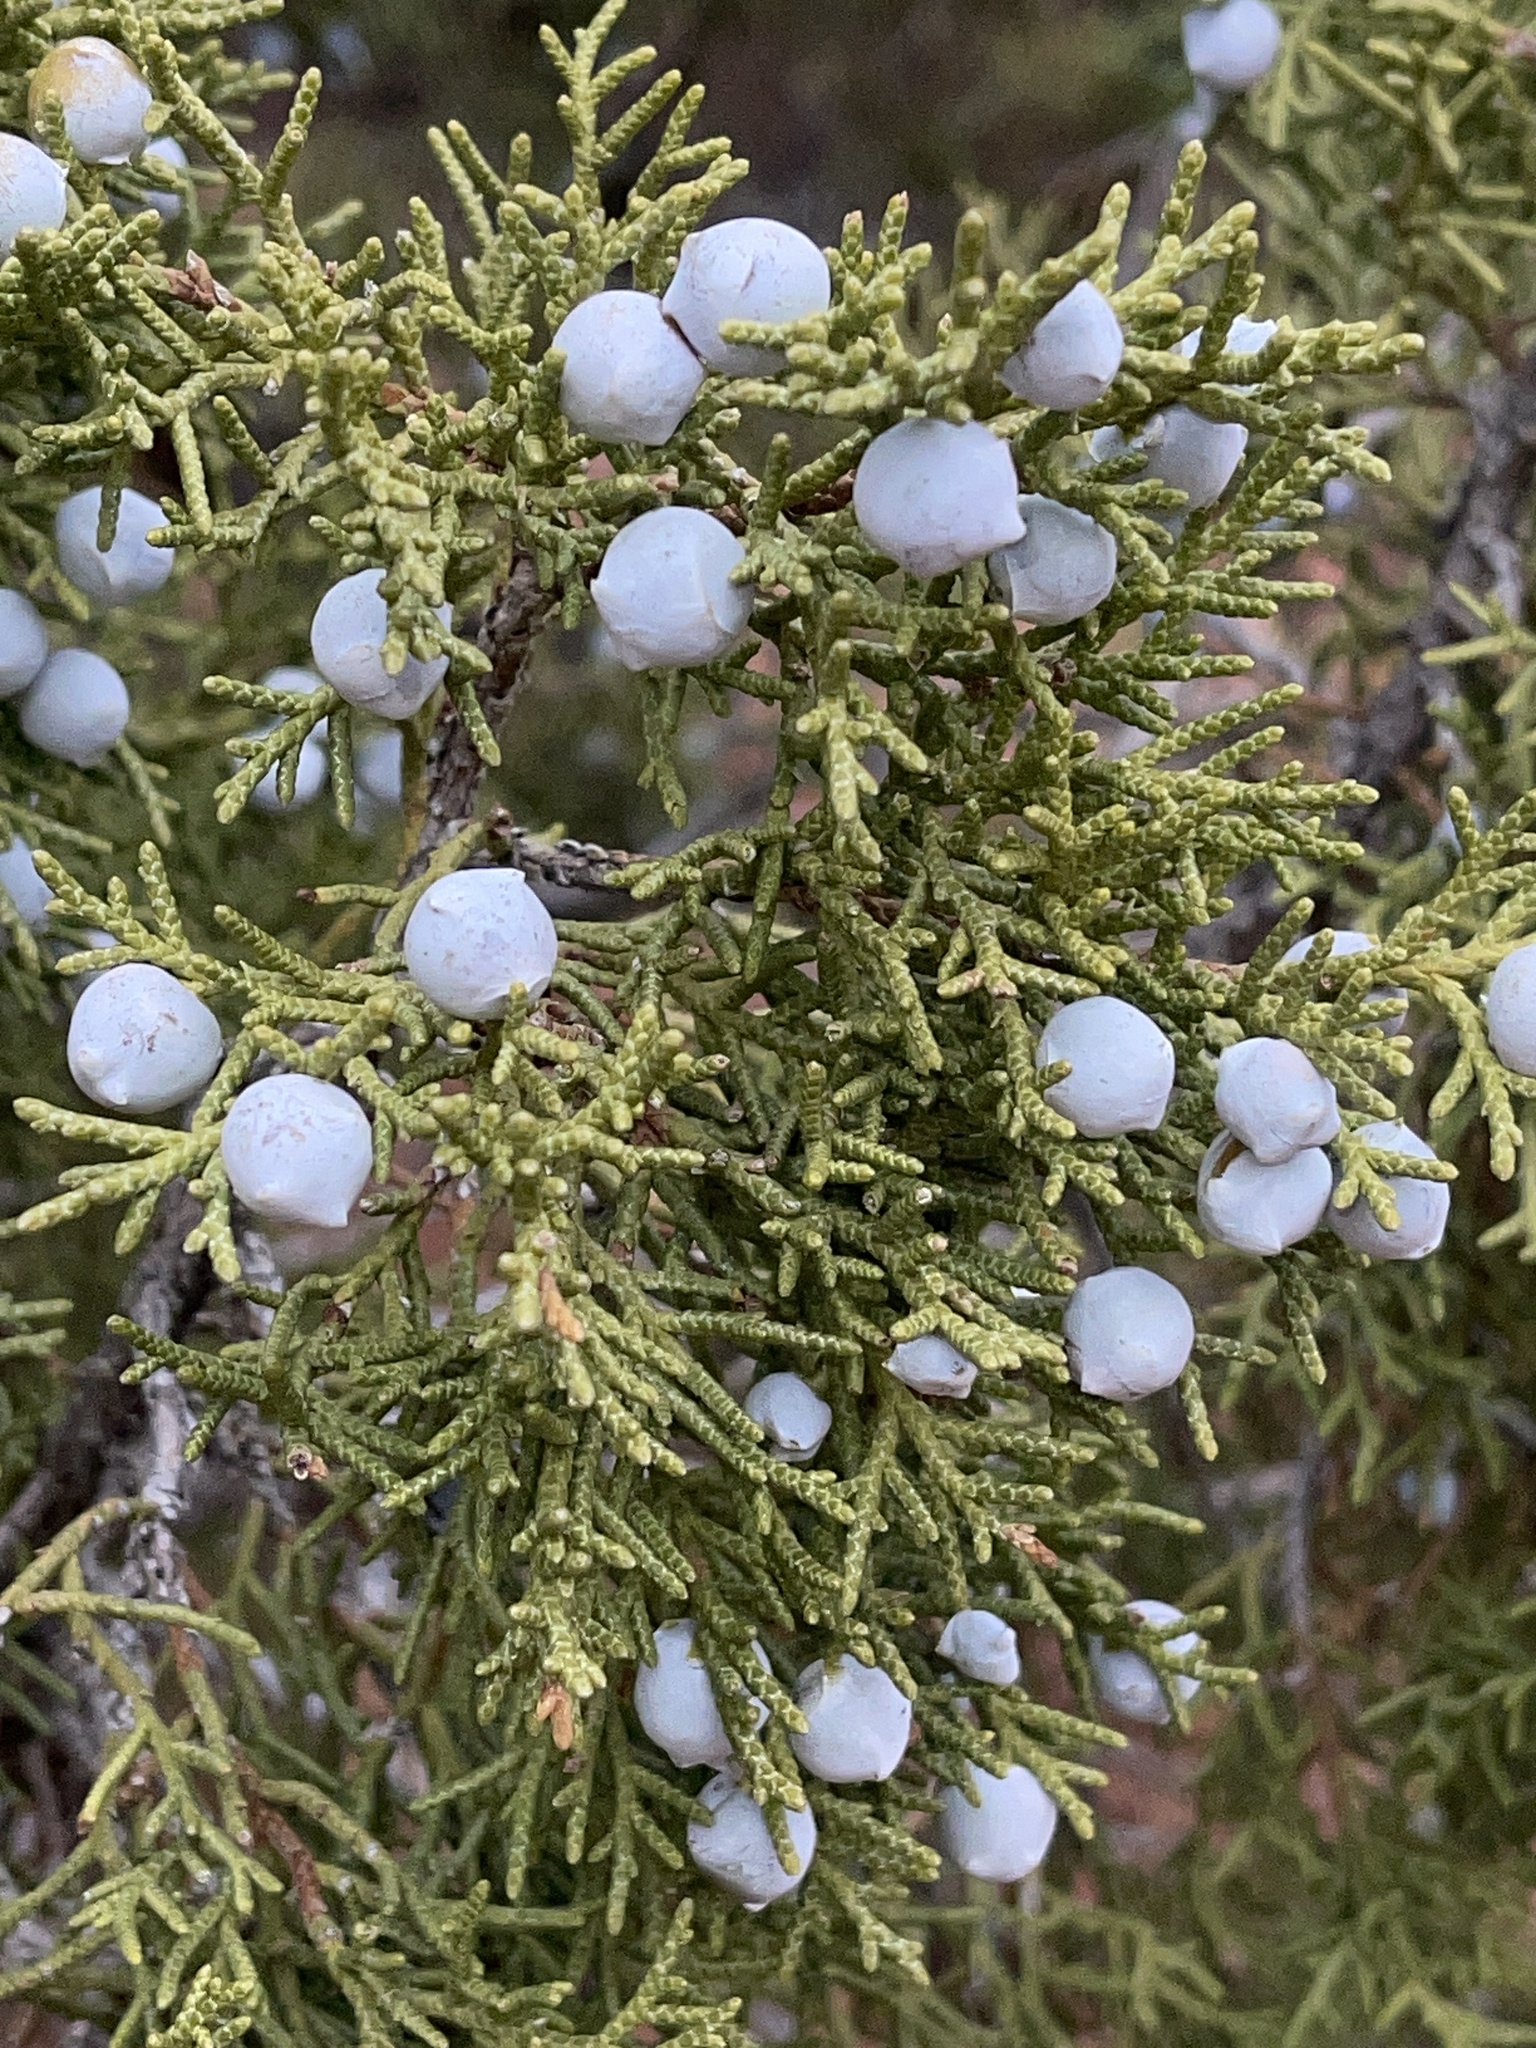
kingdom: Plantae
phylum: Tracheophyta
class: Pinopsida
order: Pinales
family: Cupressaceae
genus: Juniperus
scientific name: Juniperus osteosperma
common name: Utah juniper
